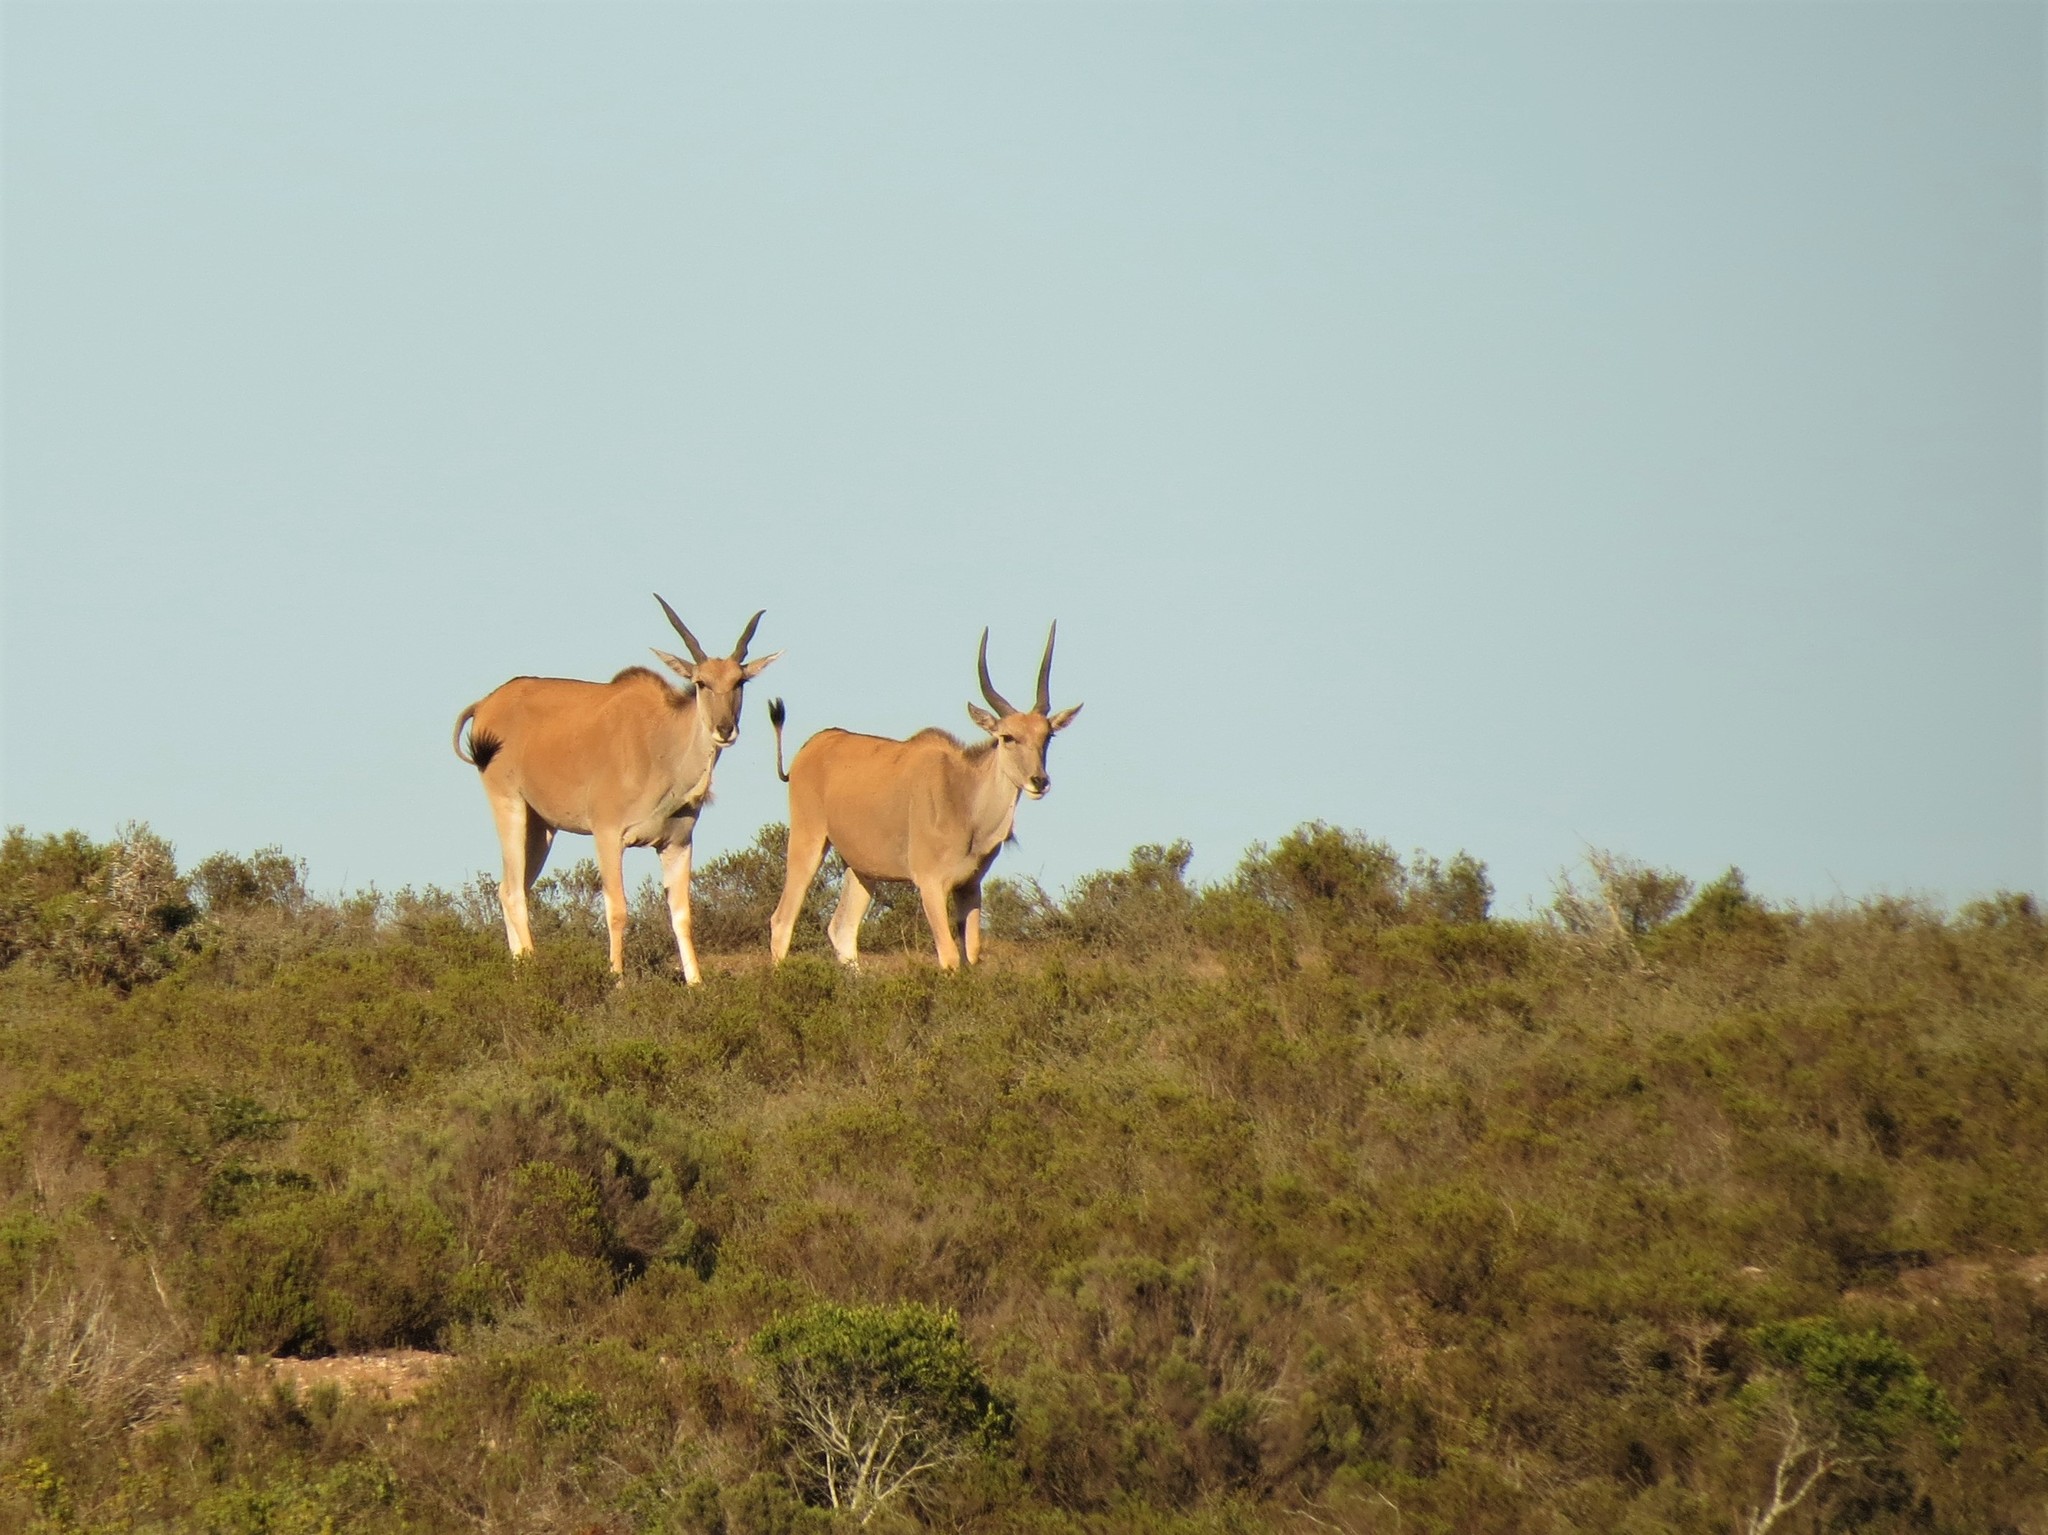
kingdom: Animalia
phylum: Chordata
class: Mammalia
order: Artiodactyla
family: Bovidae
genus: Taurotragus
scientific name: Taurotragus oryx
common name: Common eland
